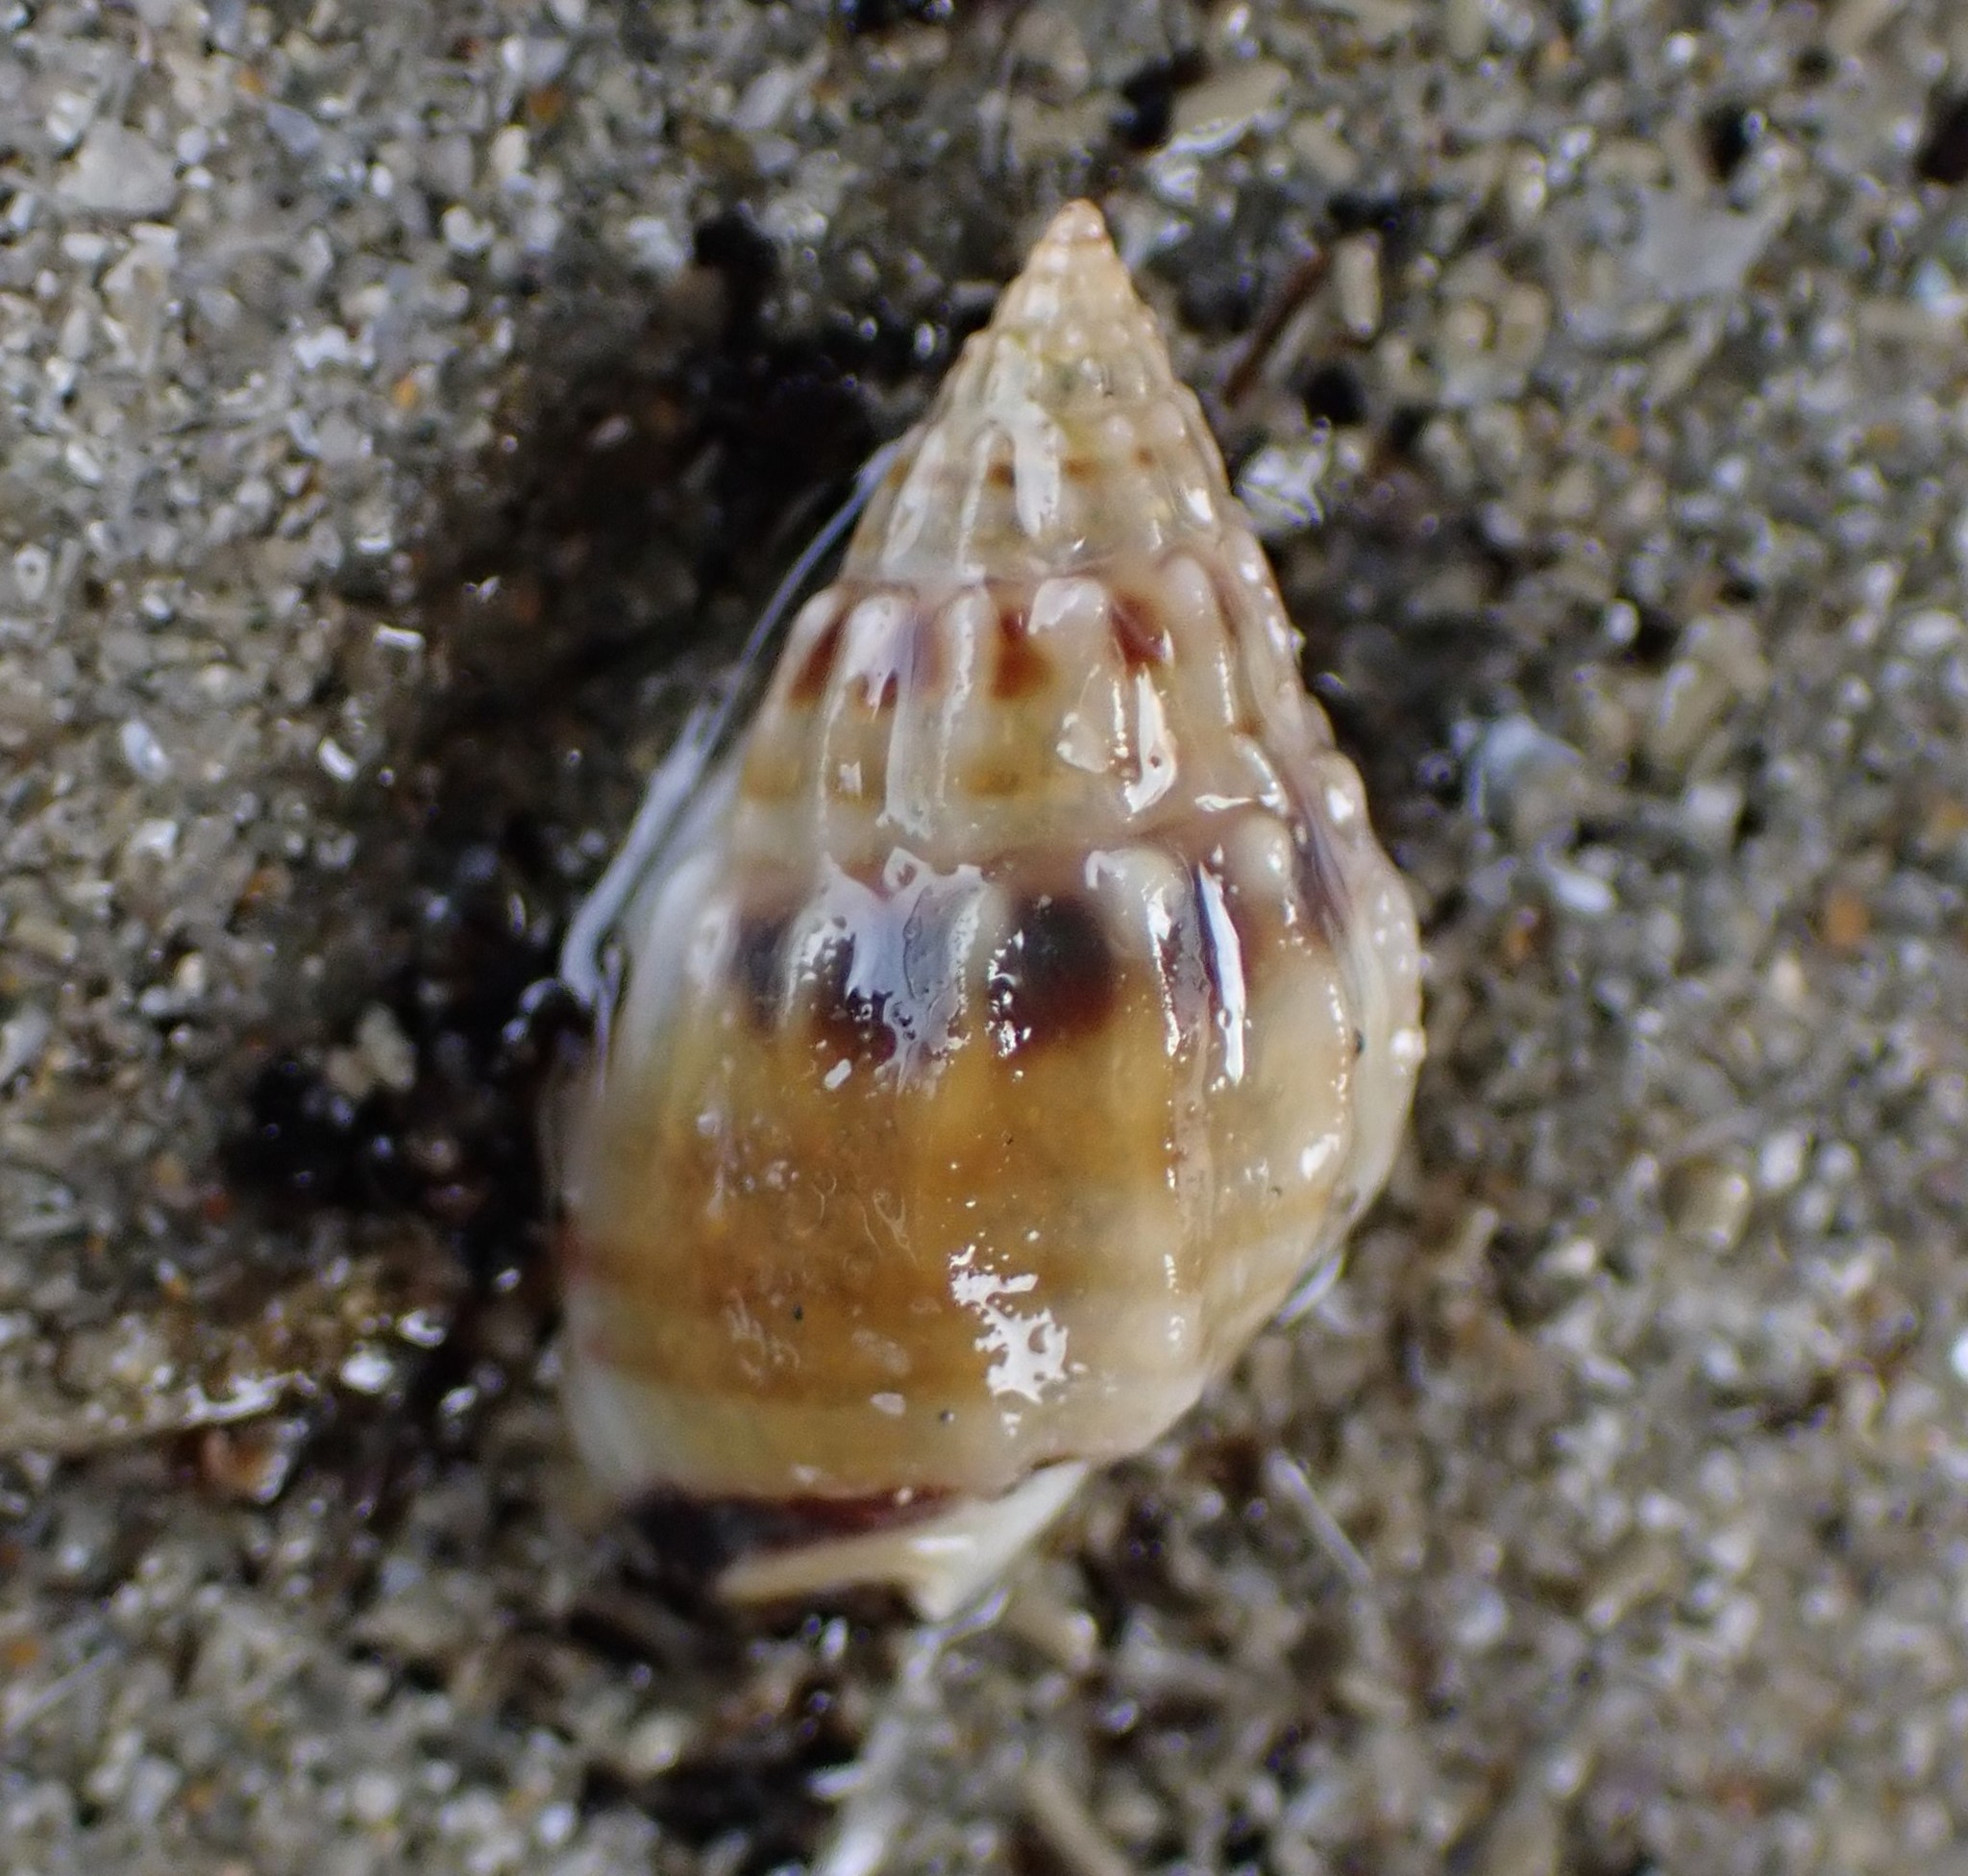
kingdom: Animalia
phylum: Mollusca
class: Gastropoda
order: Neogastropoda
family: Nassariidae
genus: Tritia
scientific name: Tritia burchardi
